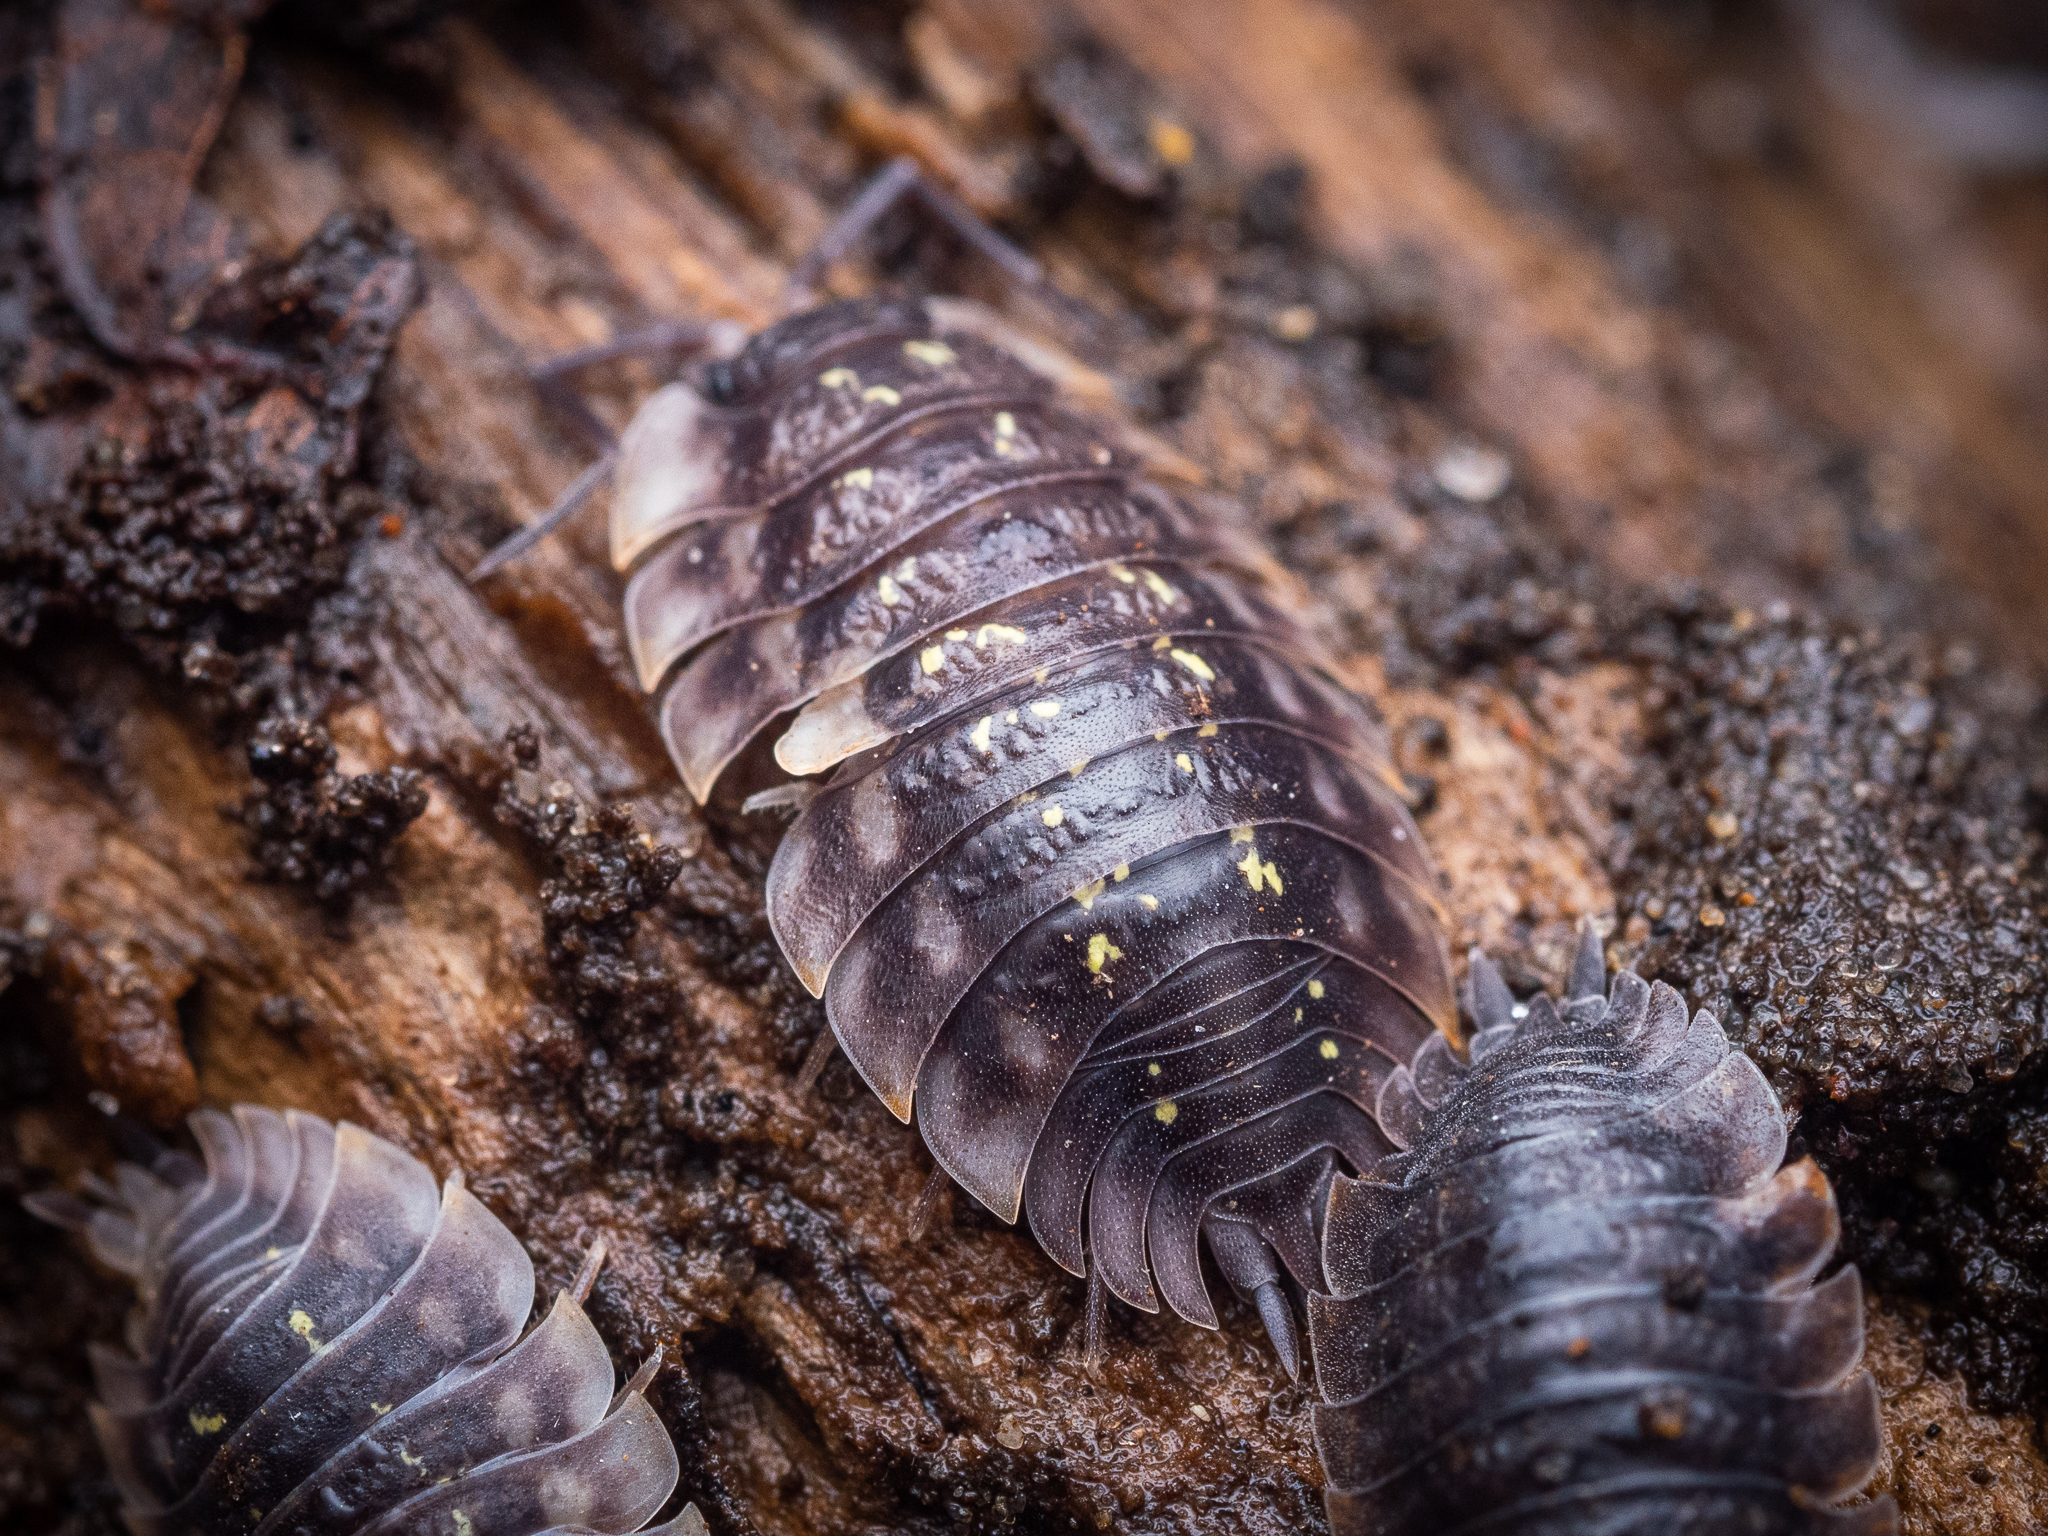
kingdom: Animalia
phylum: Arthropoda
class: Malacostraca
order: Isopoda
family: Oniscidae
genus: Oniscus
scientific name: Oniscus asellus
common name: Common shiny woodlouse
